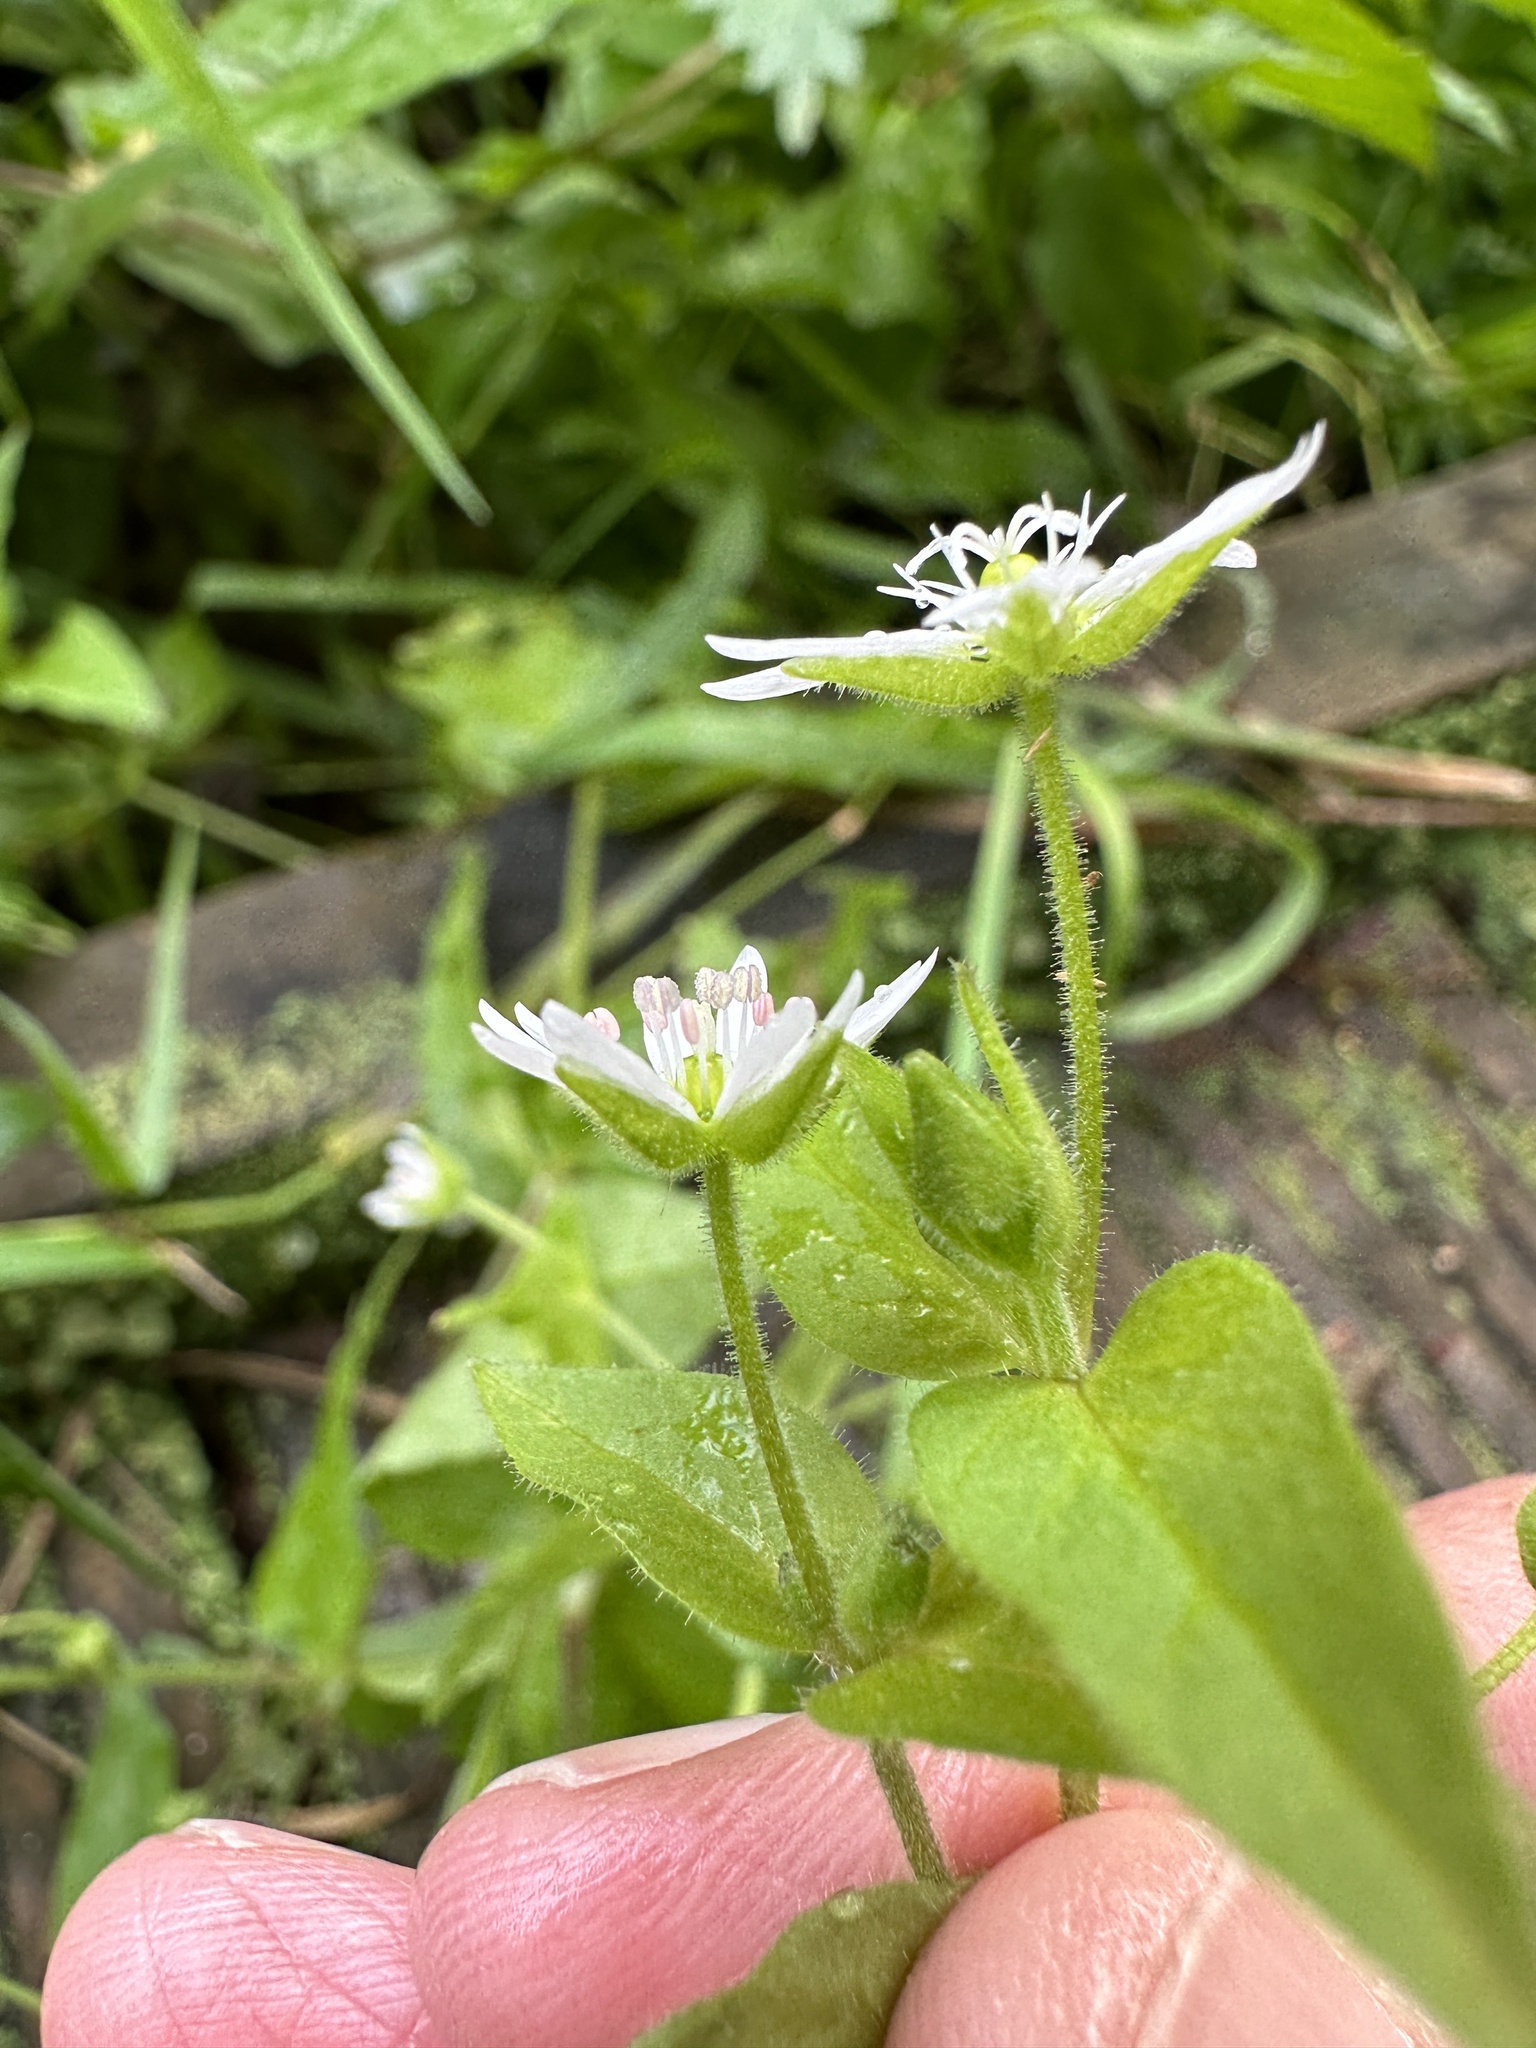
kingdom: Plantae
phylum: Tracheophyta
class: Magnoliopsida
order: Caryophyllales
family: Caryophyllaceae
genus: Stellaria
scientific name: Stellaria aquatica
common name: Water chickweed
